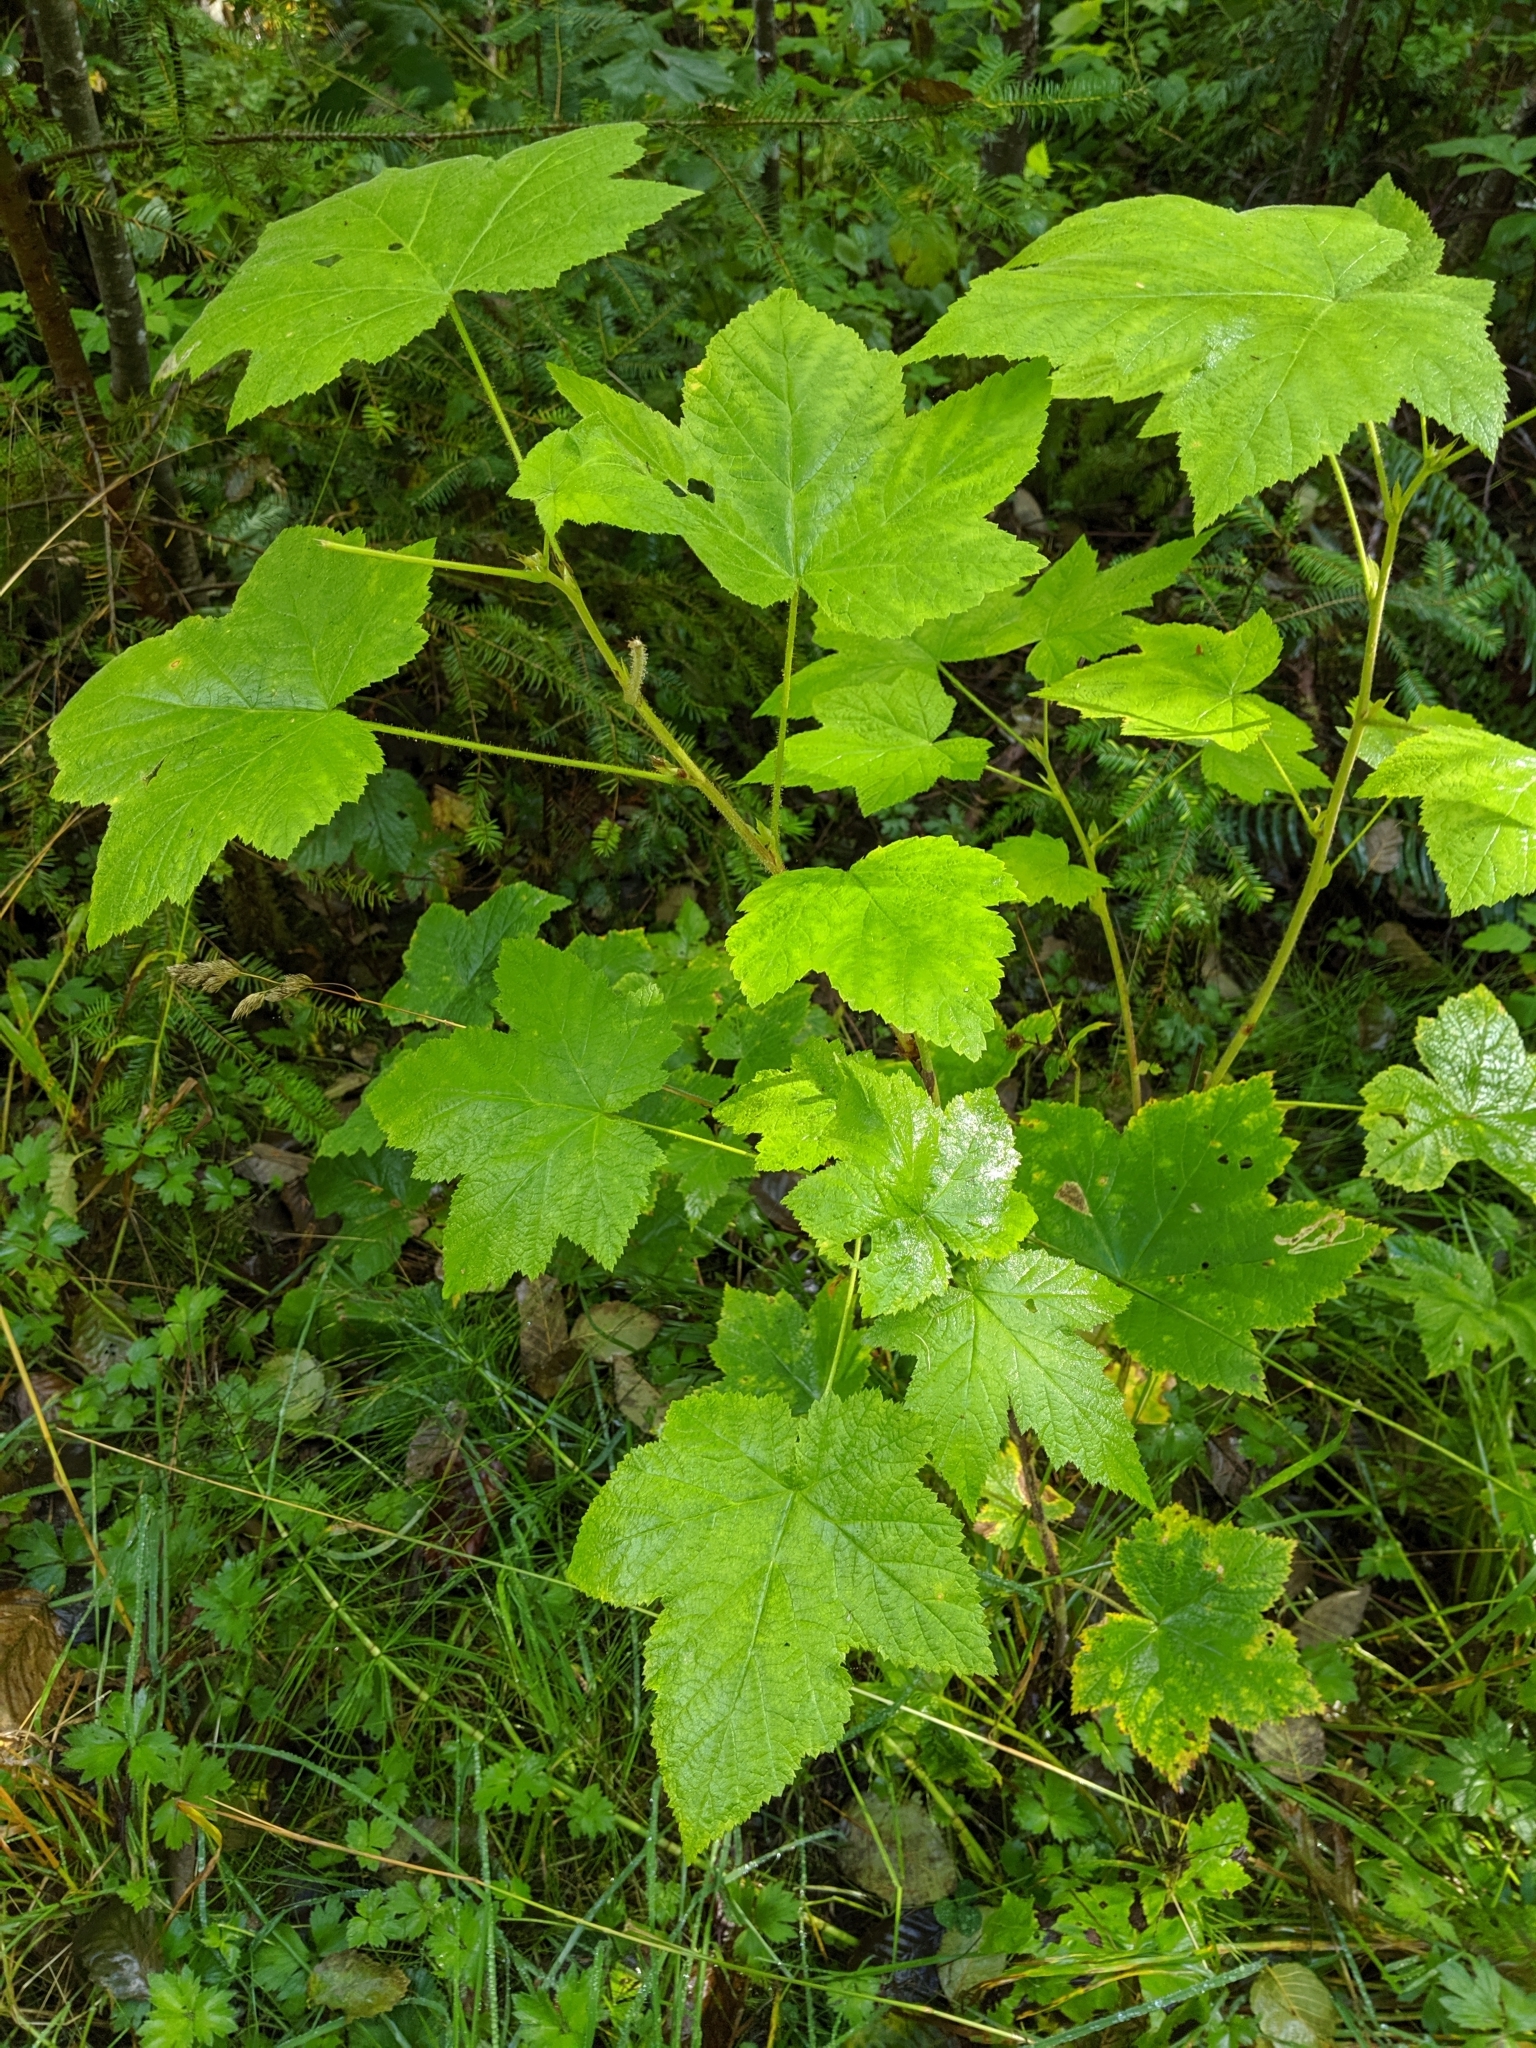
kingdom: Plantae
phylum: Tracheophyta
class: Magnoliopsida
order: Rosales
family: Rosaceae
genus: Rubus
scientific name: Rubus parviflorus
